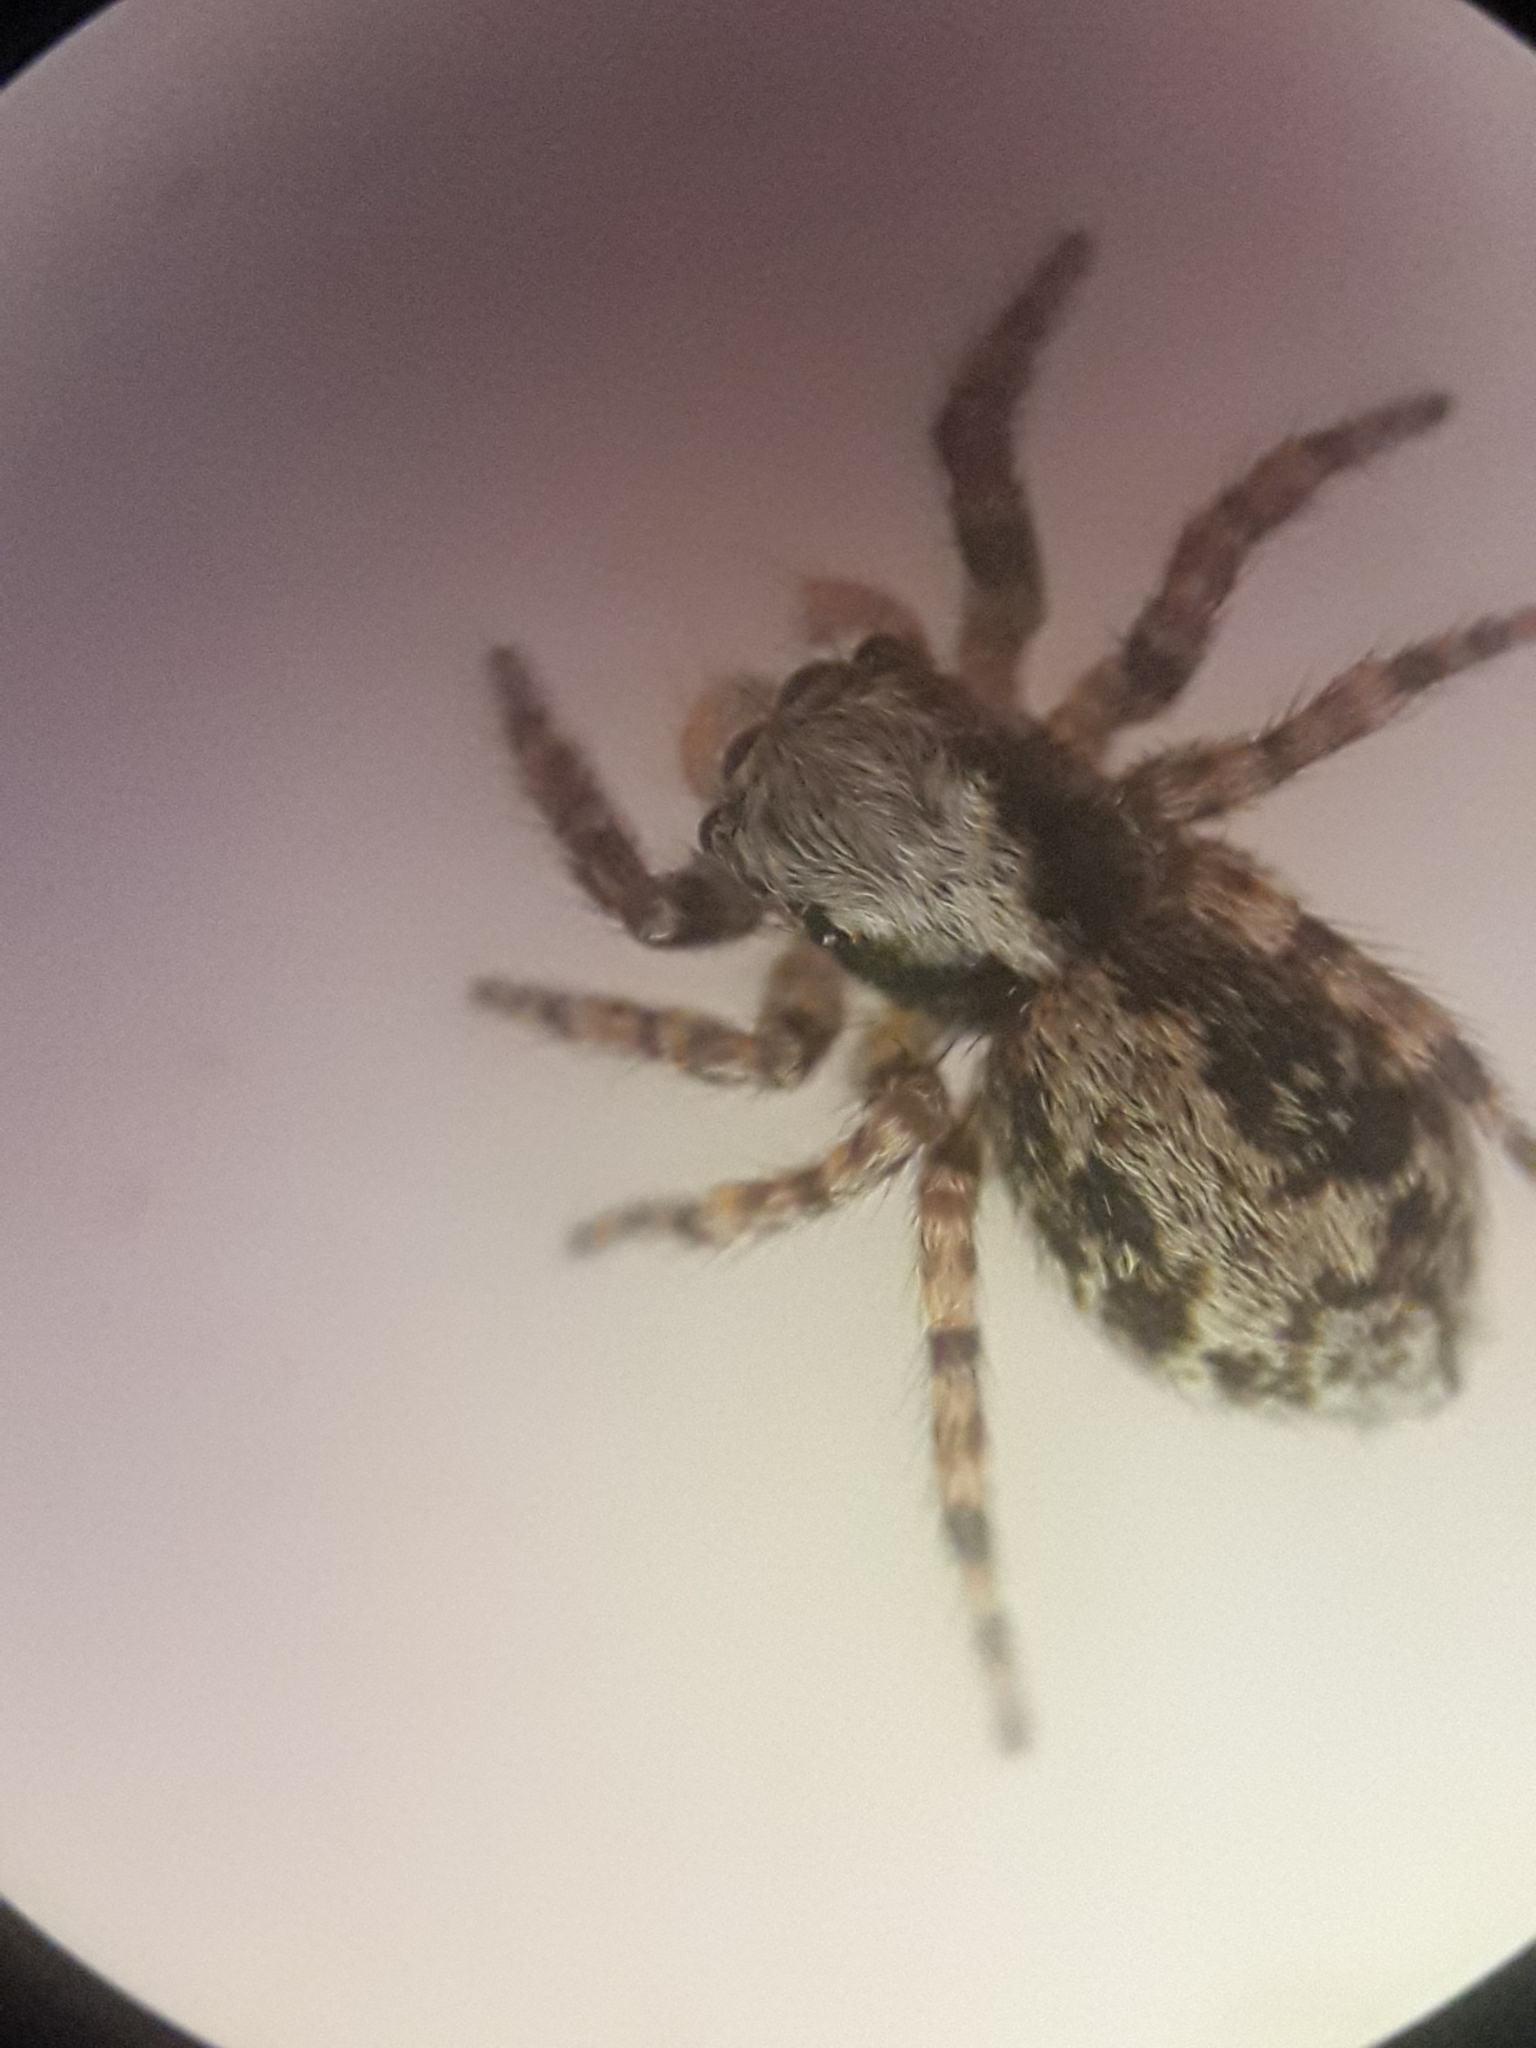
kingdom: Animalia
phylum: Arthropoda
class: Arachnida
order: Araneae
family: Salticidae
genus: Pseudeuophrys
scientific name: Pseudeuophrys lanigera
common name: Jumping spider
